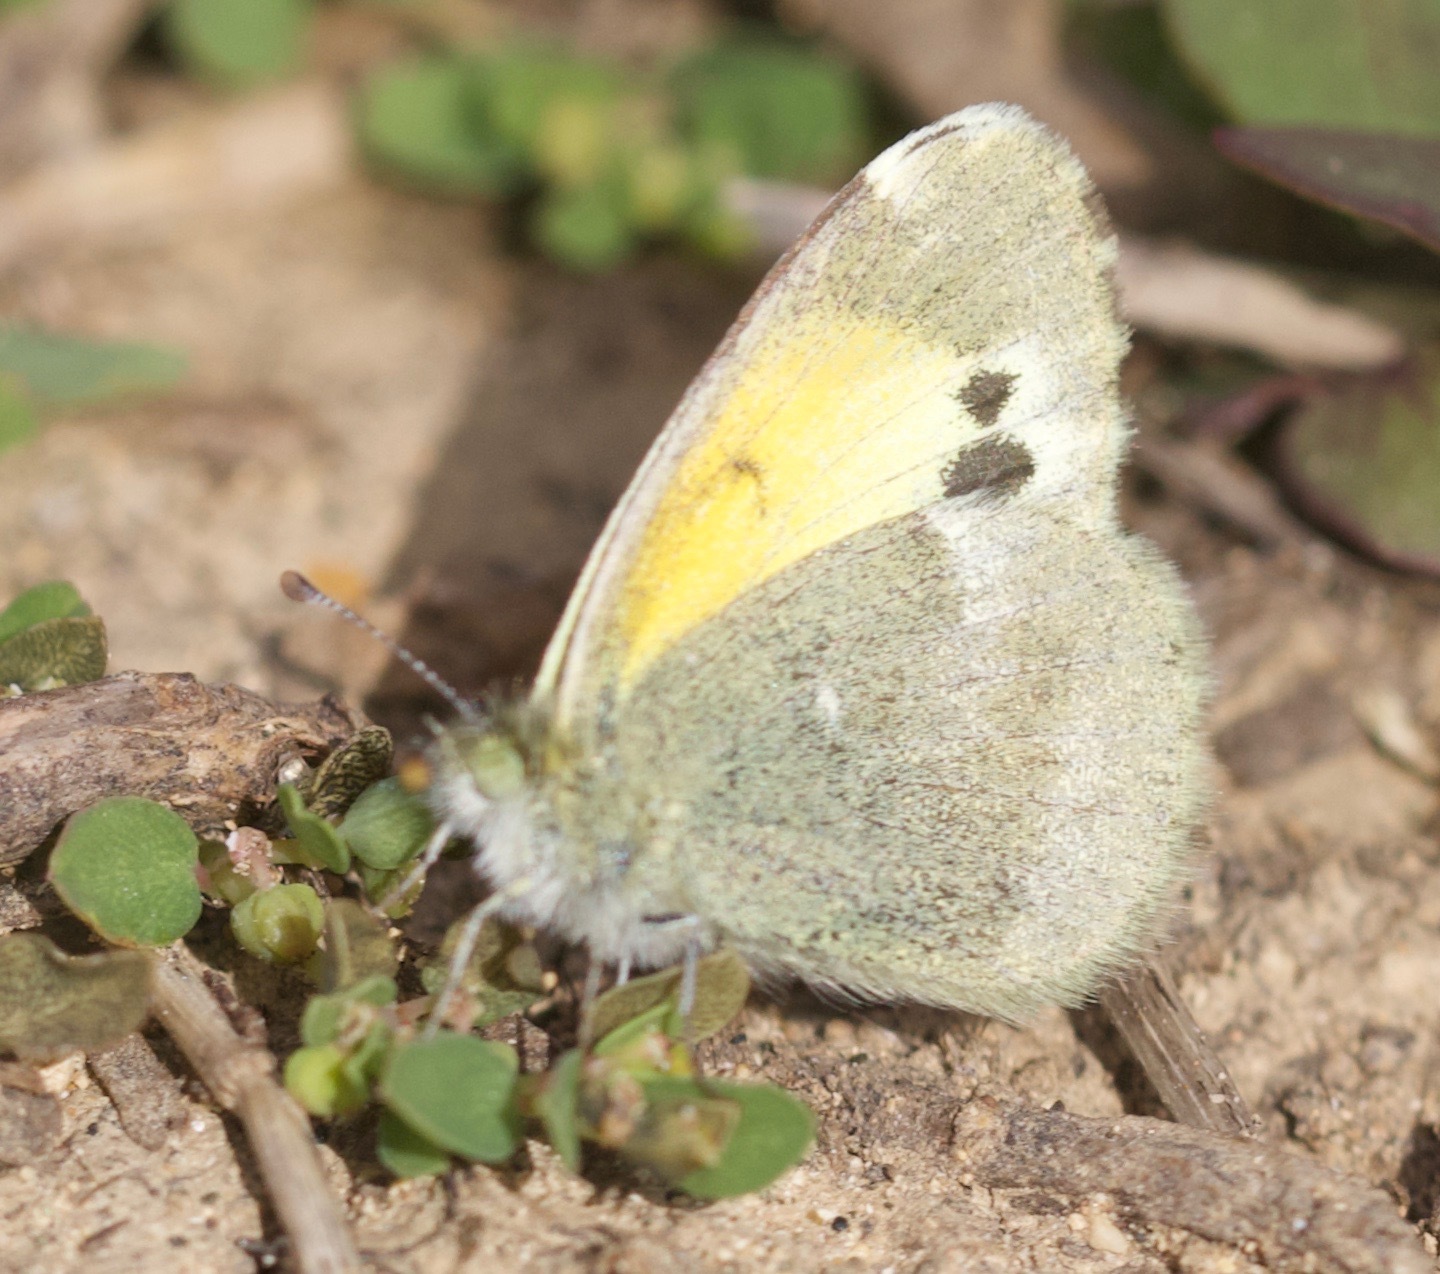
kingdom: Animalia
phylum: Arthropoda
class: Insecta
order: Lepidoptera
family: Pieridae
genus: Nathalis
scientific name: Nathalis iole
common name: Dainty sulphur
